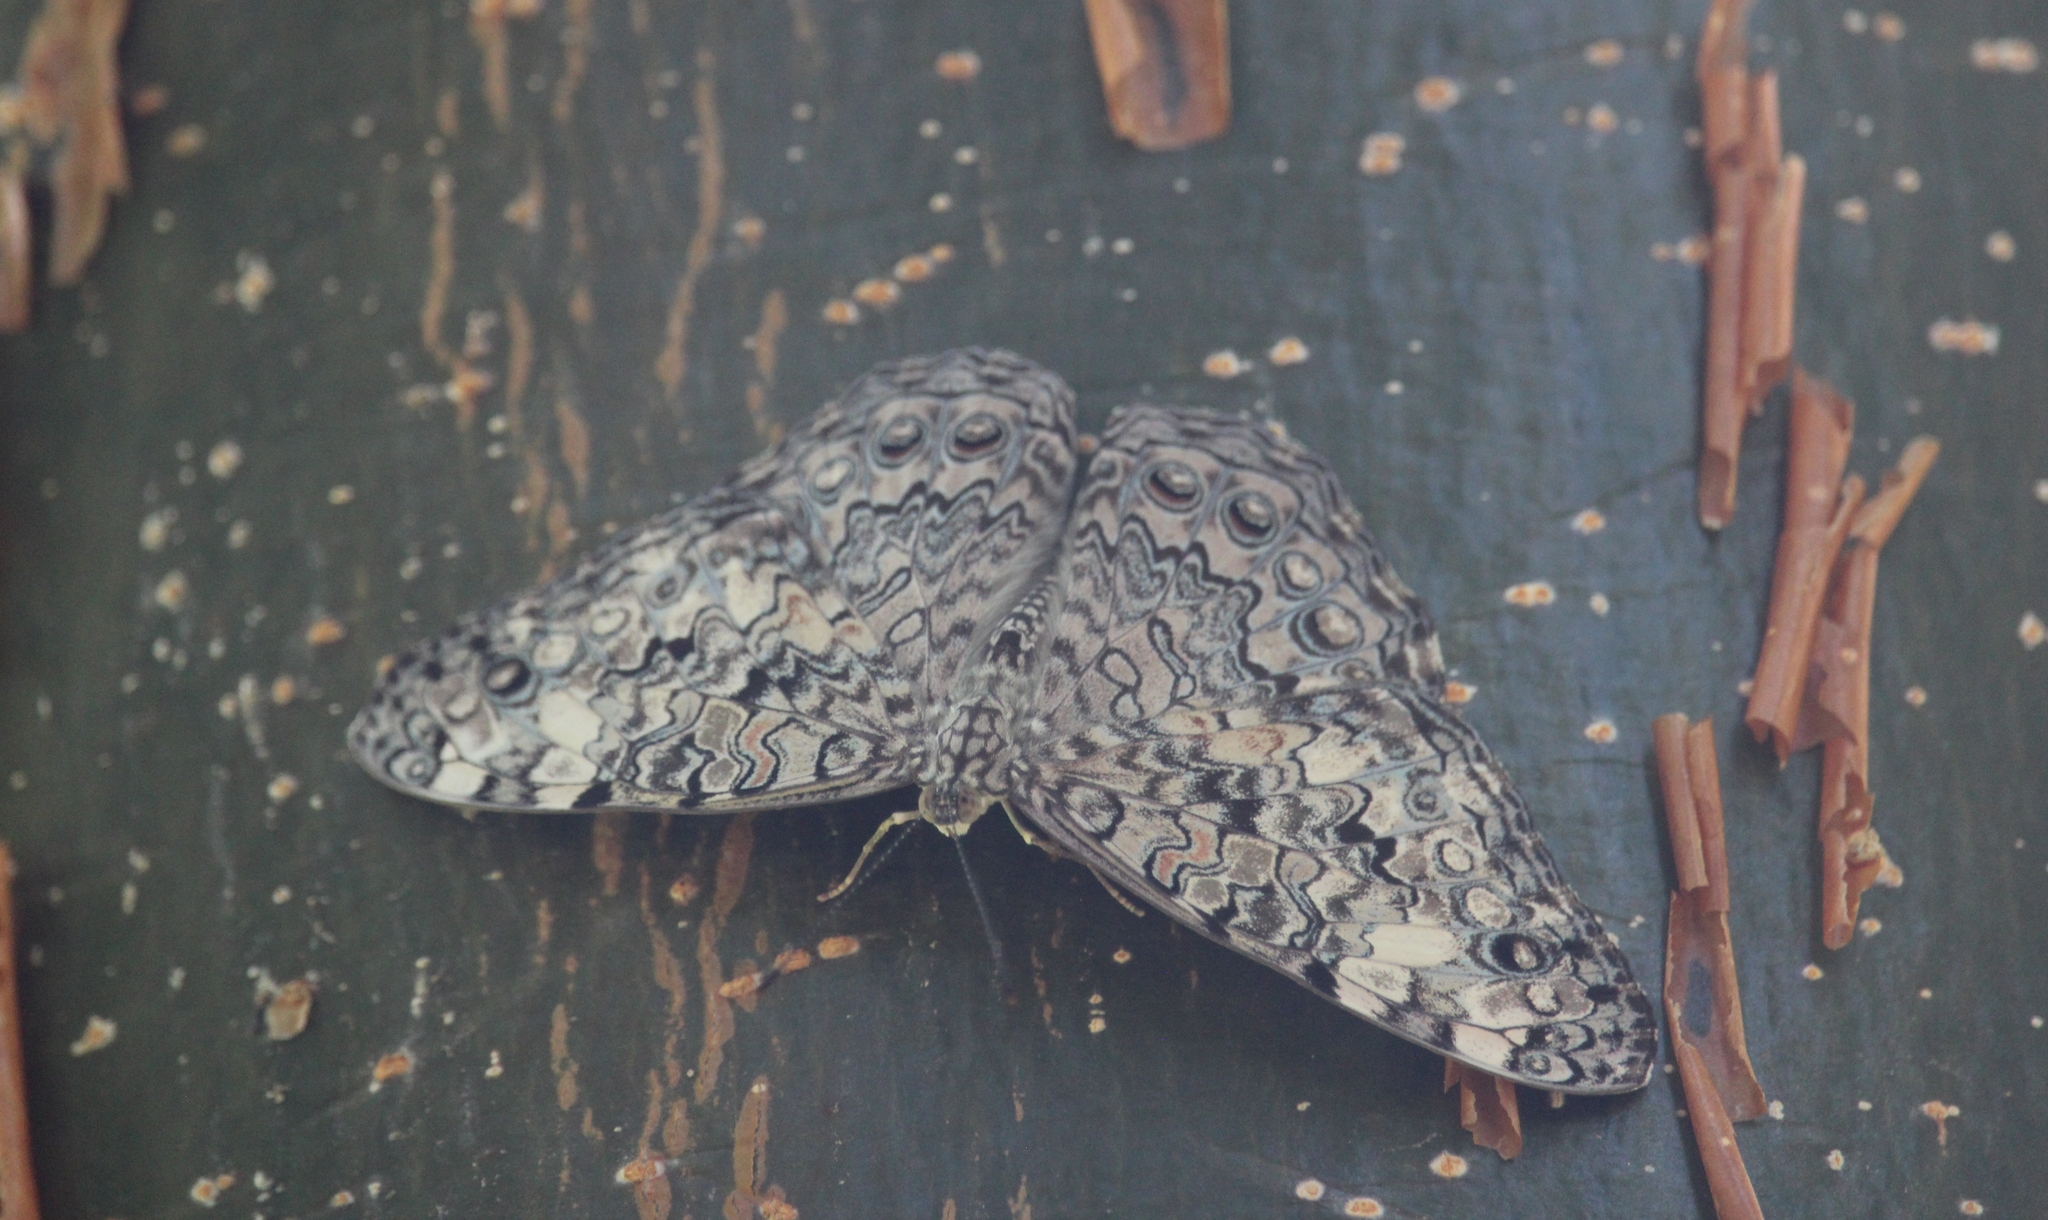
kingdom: Animalia
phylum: Arthropoda
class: Insecta
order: Lepidoptera
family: Nymphalidae
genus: Hamadryas
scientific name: Hamadryas februa
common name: Gray cracker
